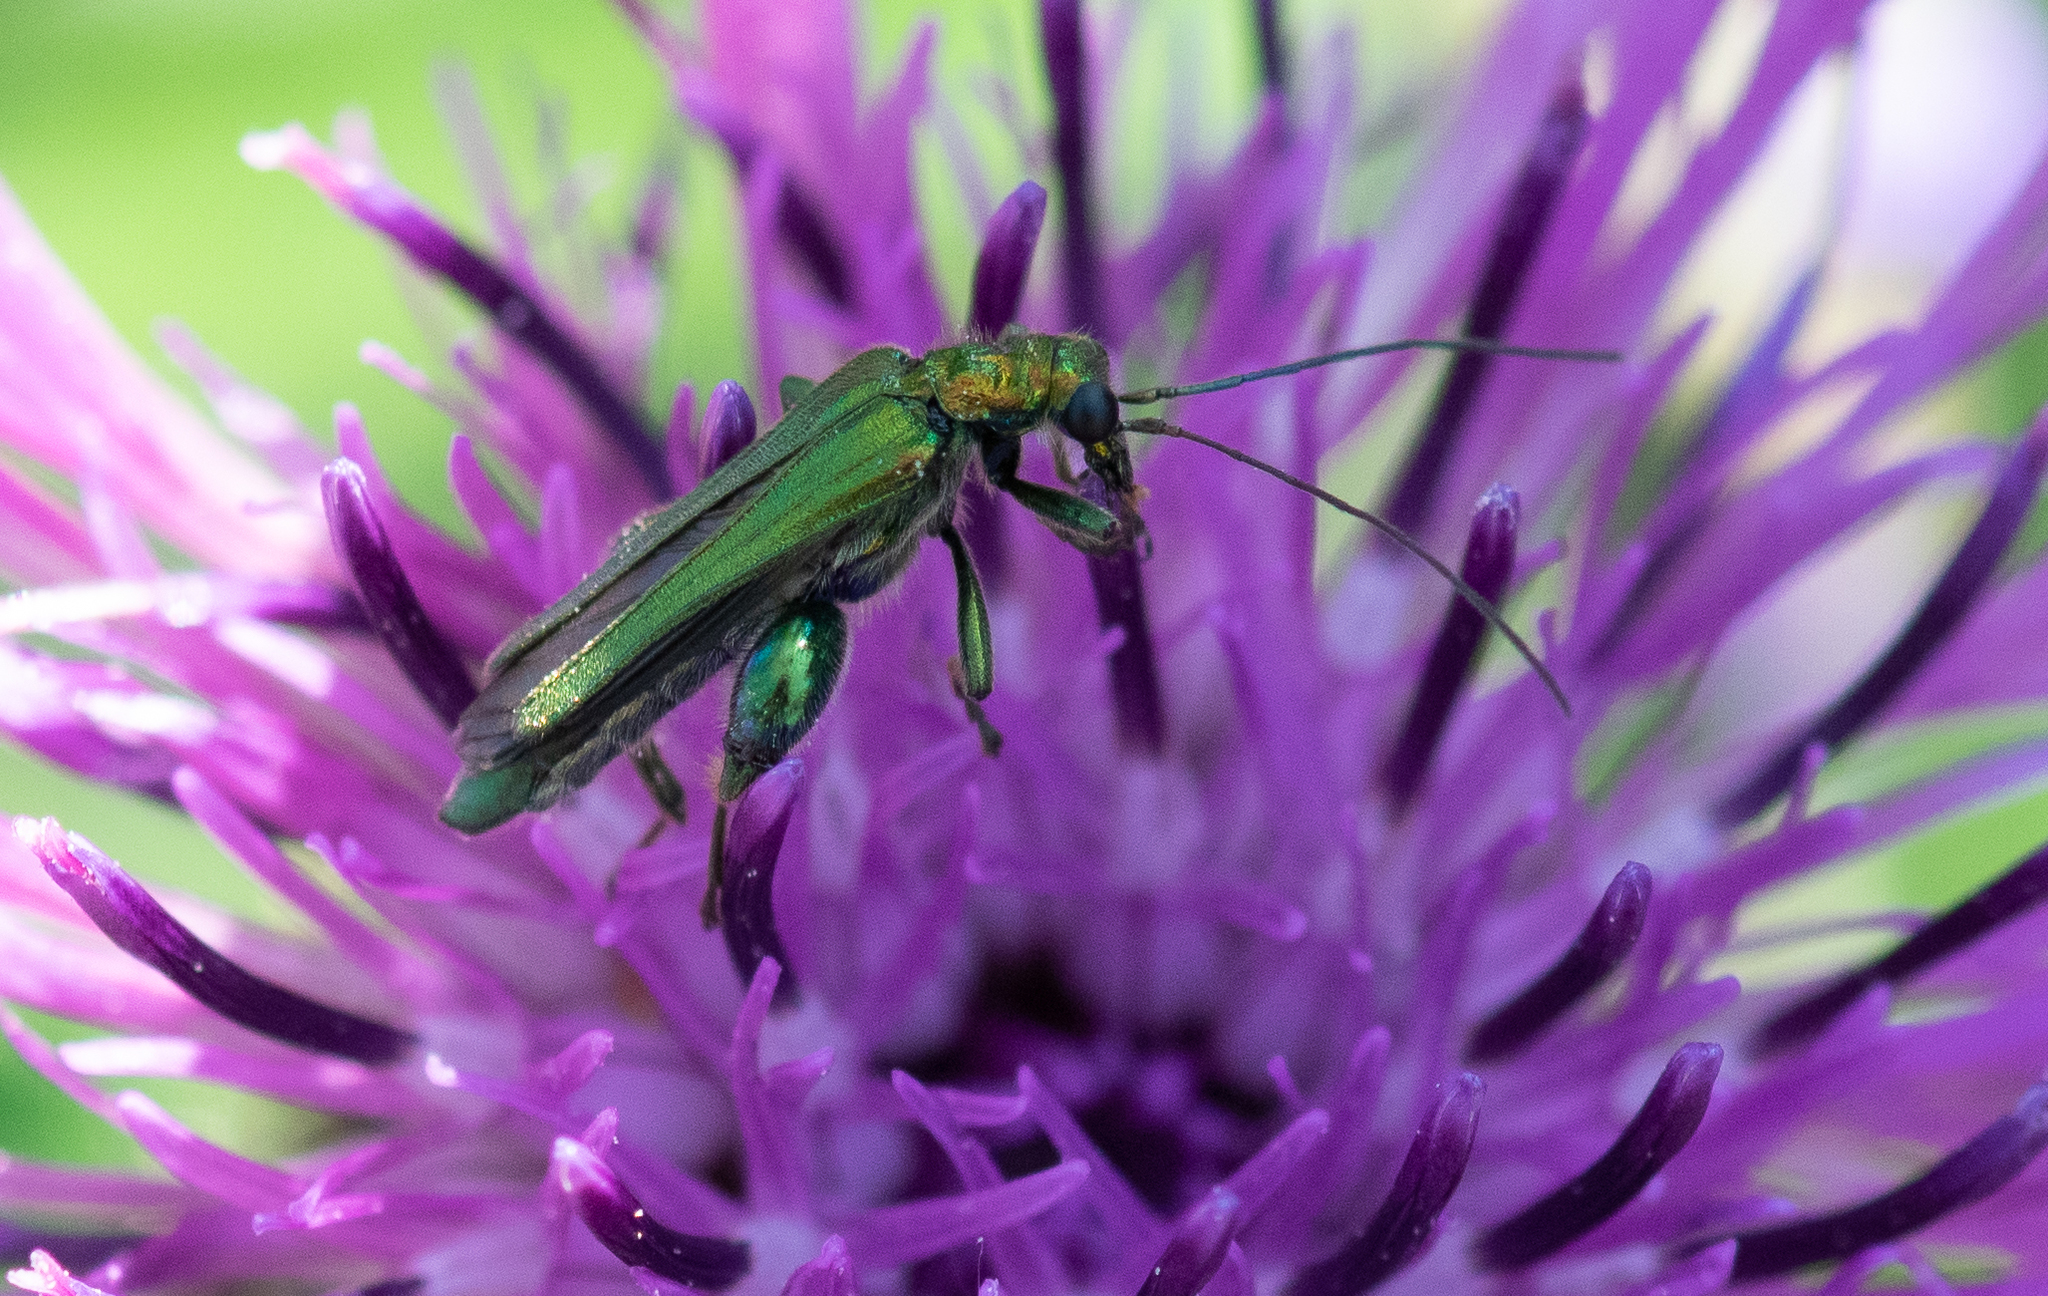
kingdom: Animalia
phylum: Arthropoda
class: Insecta
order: Coleoptera
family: Oedemeridae
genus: Oedemera
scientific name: Oedemera nobilis
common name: Swollen-thighed beetle
